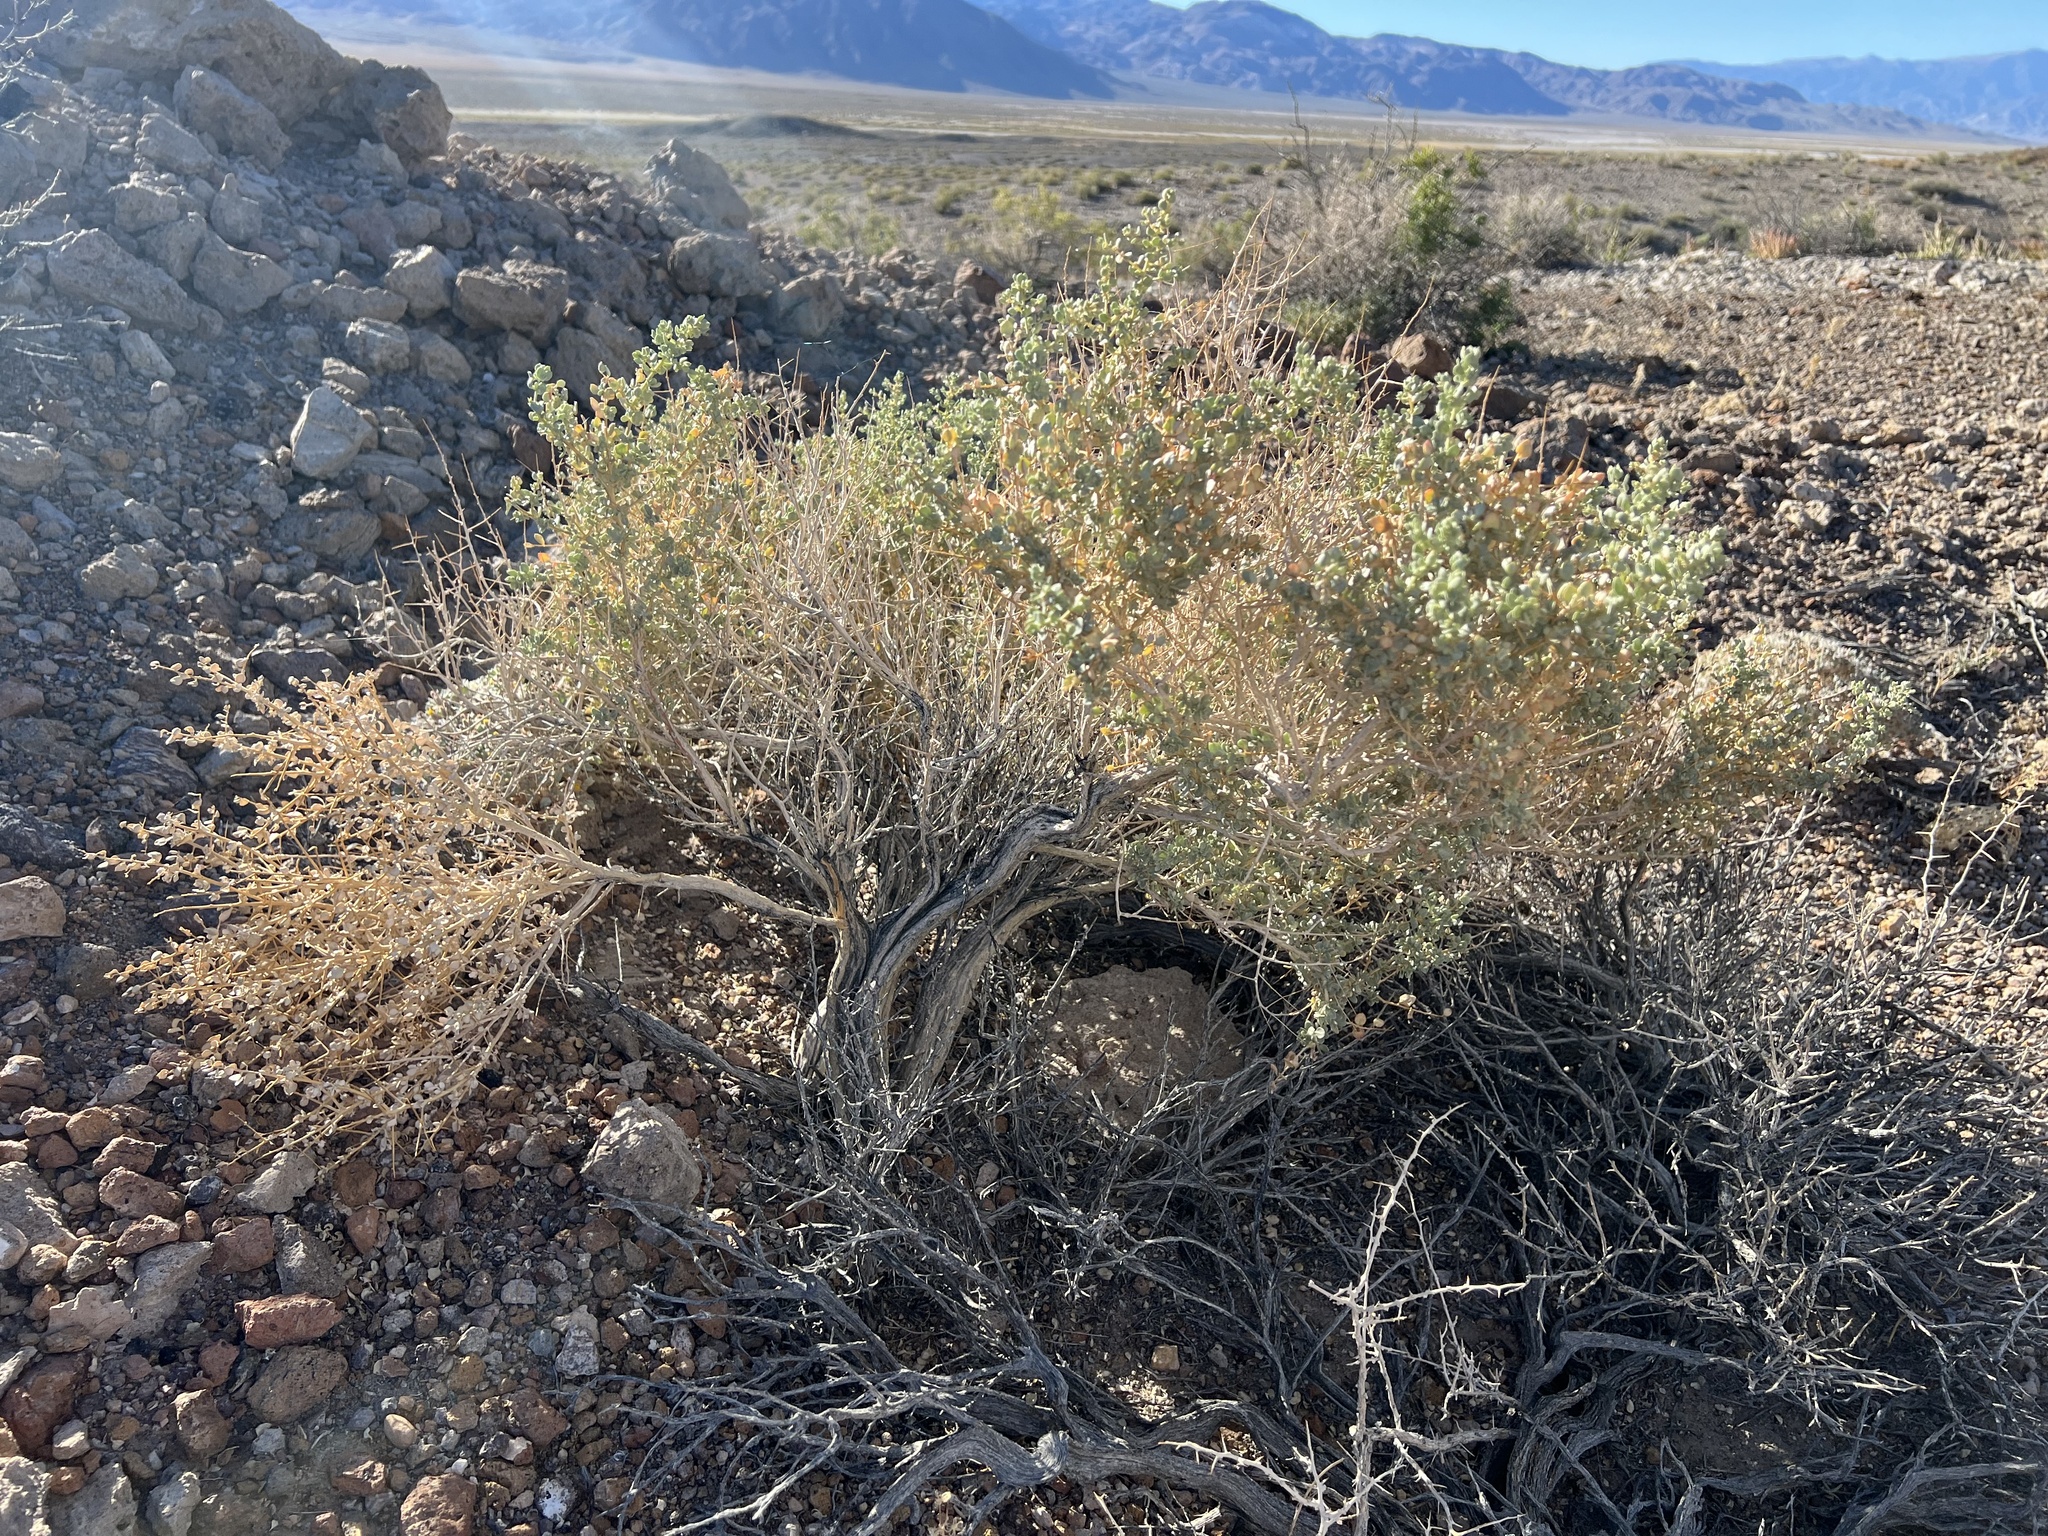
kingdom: Plantae
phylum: Tracheophyta
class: Magnoliopsida
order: Caryophyllales
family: Amaranthaceae
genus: Atriplex
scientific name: Atriplex confertifolia
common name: Shadscale
